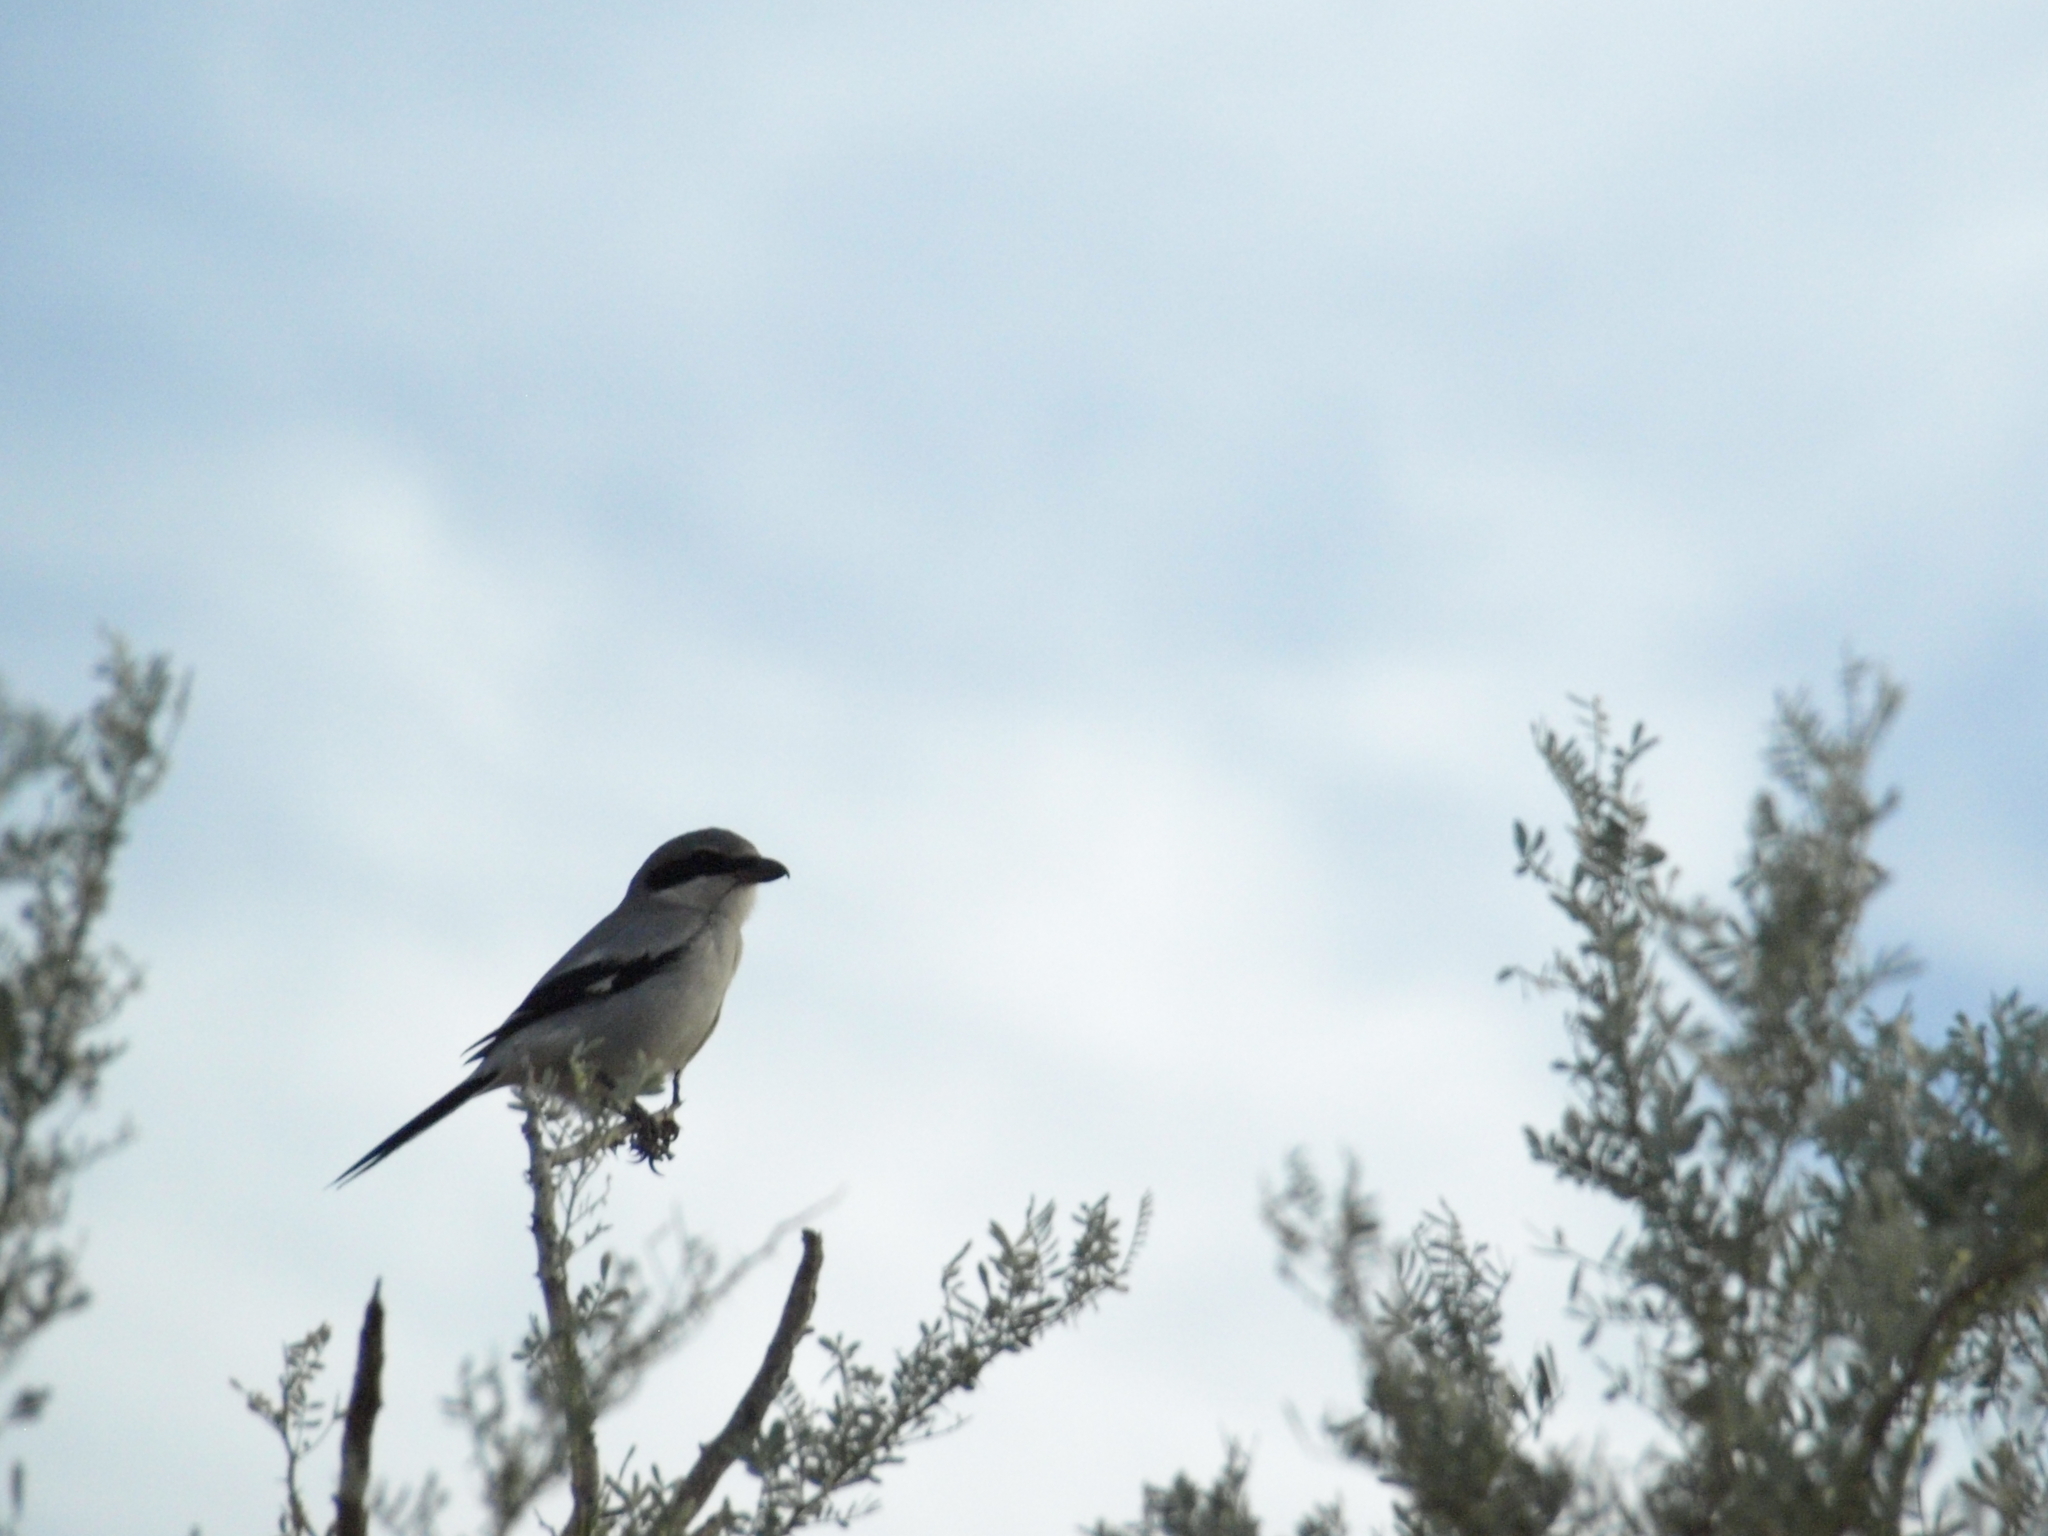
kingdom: Animalia
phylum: Chordata
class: Aves
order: Passeriformes
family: Laniidae
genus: Lanius
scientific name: Lanius ludovicianus
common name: Loggerhead shrike
